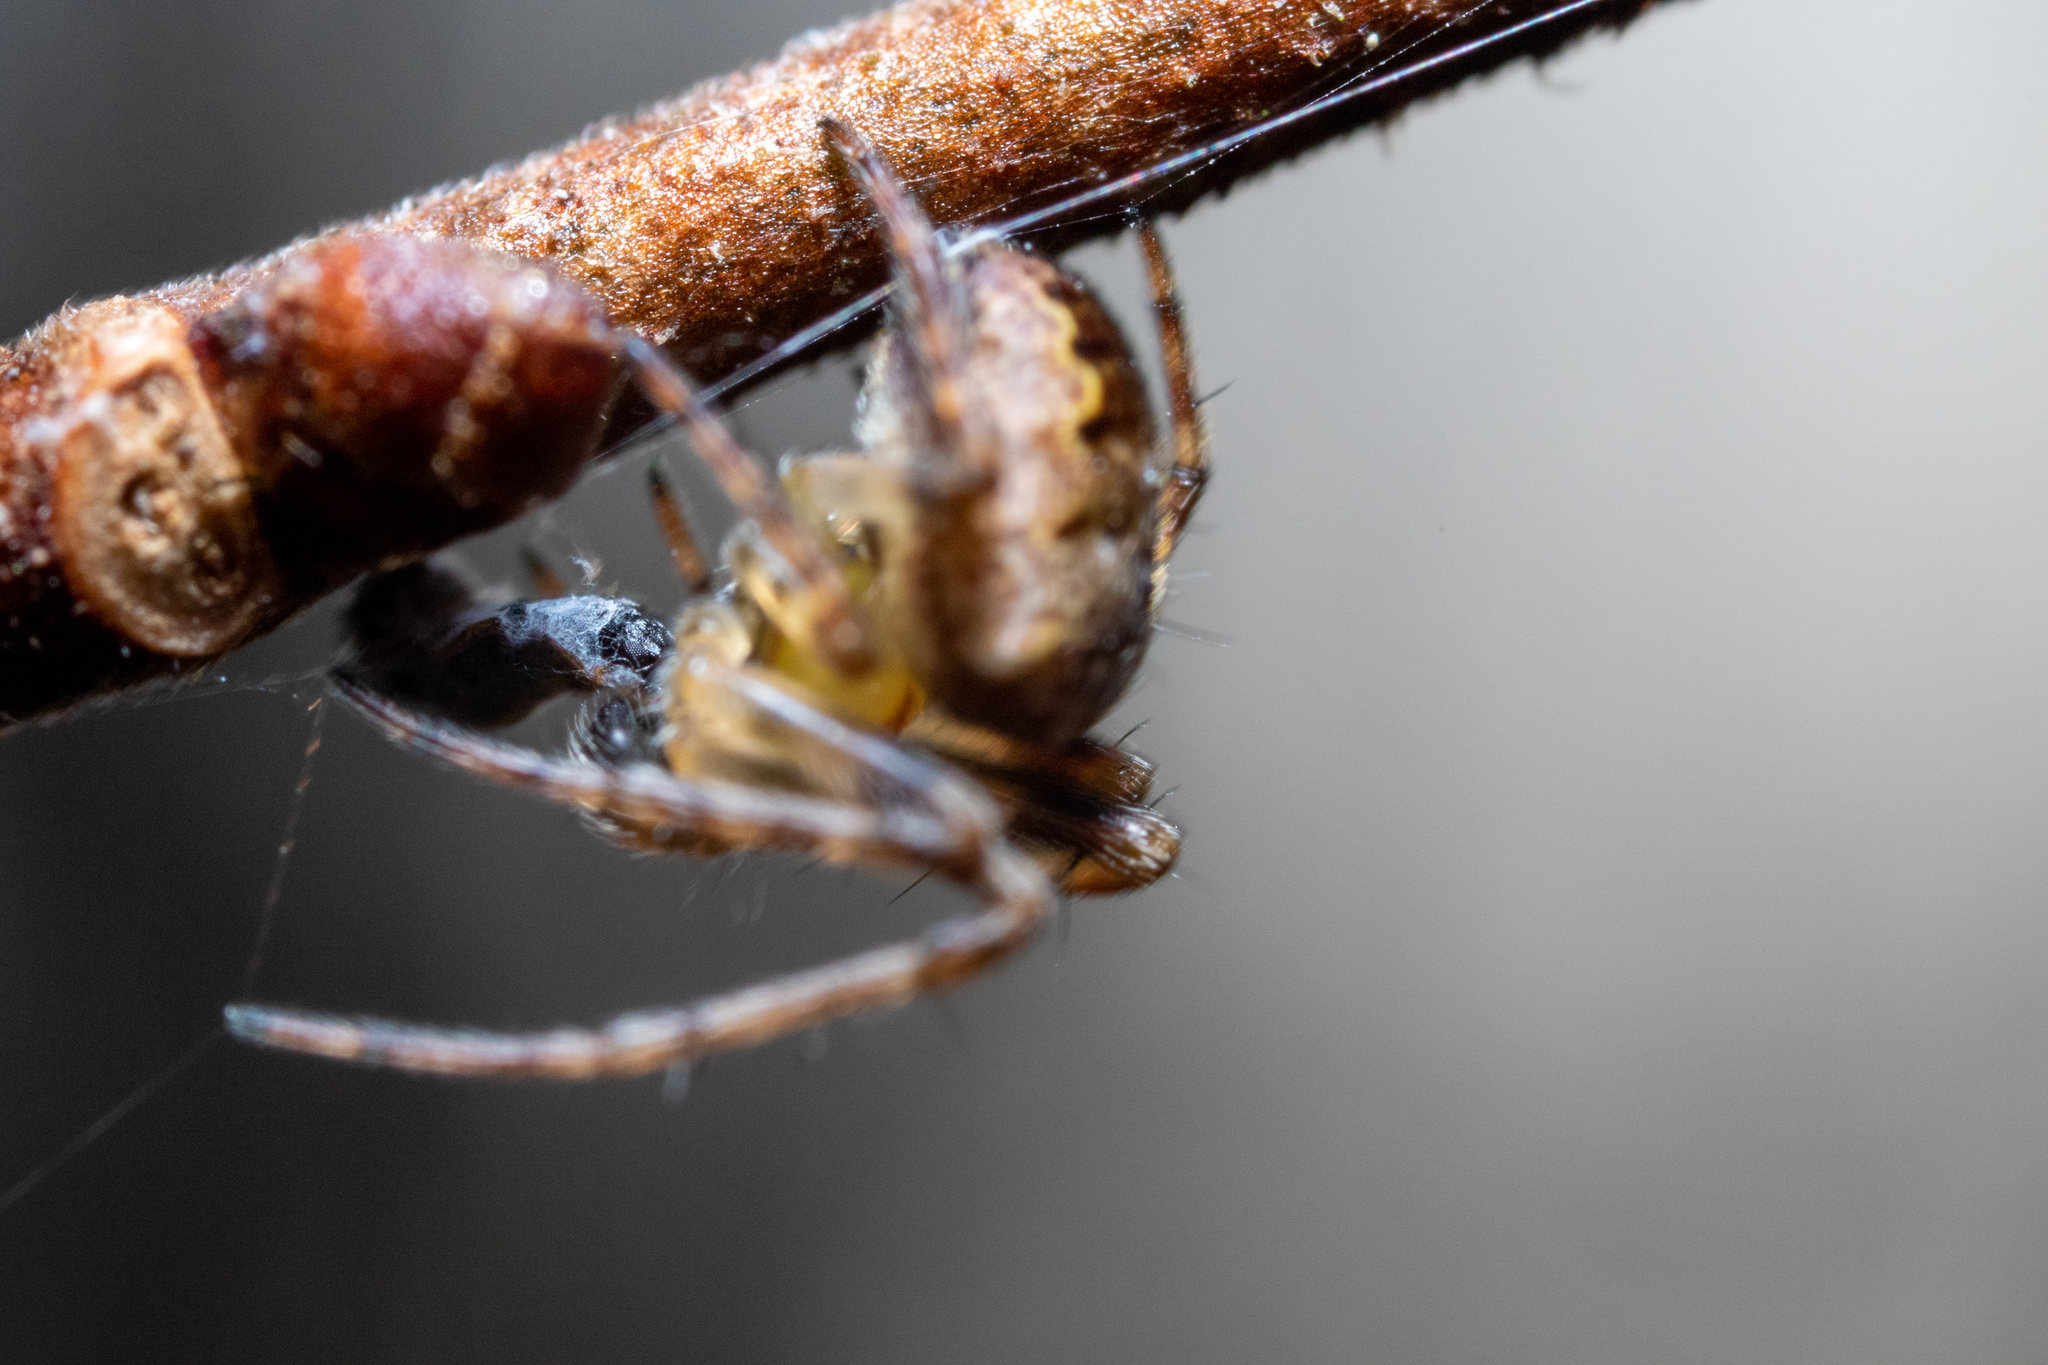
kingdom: Animalia
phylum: Arthropoda
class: Arachnida
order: Araneae
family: Araneidae
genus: Zilla
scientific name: Zilla diodia
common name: Zilla diodia
